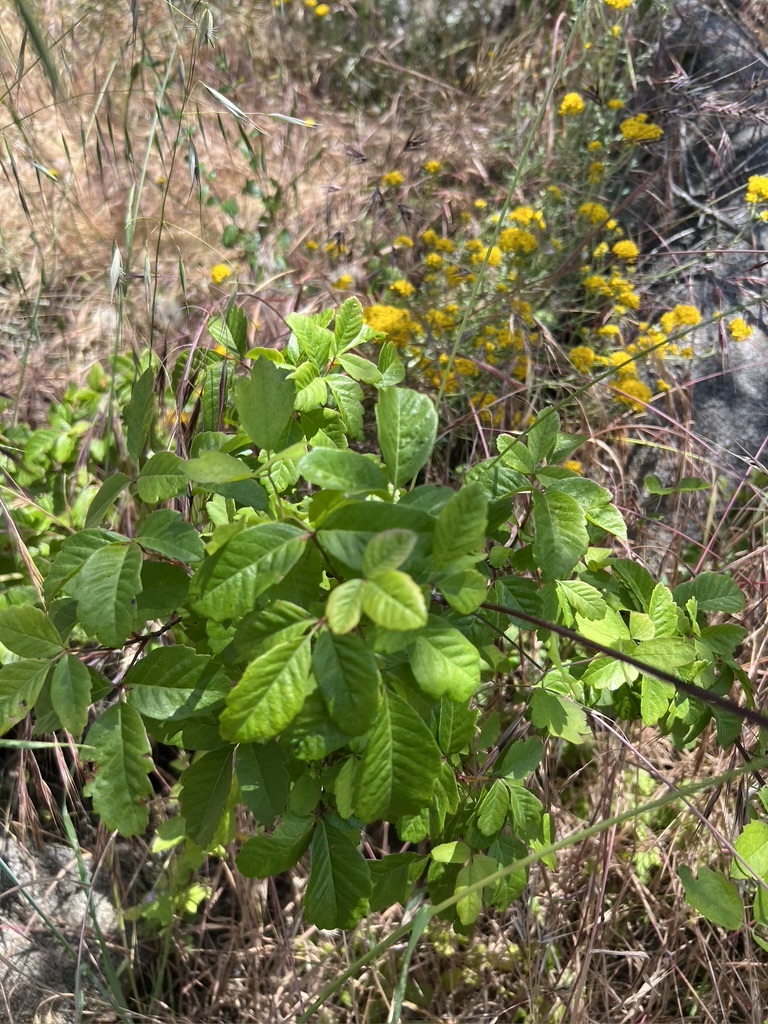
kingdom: Plantae
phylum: Tracheophyta
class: Magnoliopsida
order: Sapindales
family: Anacardiaceae
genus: Toxicodendron
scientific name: Toxicodendron diversilobum
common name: Pacific poison-oak
